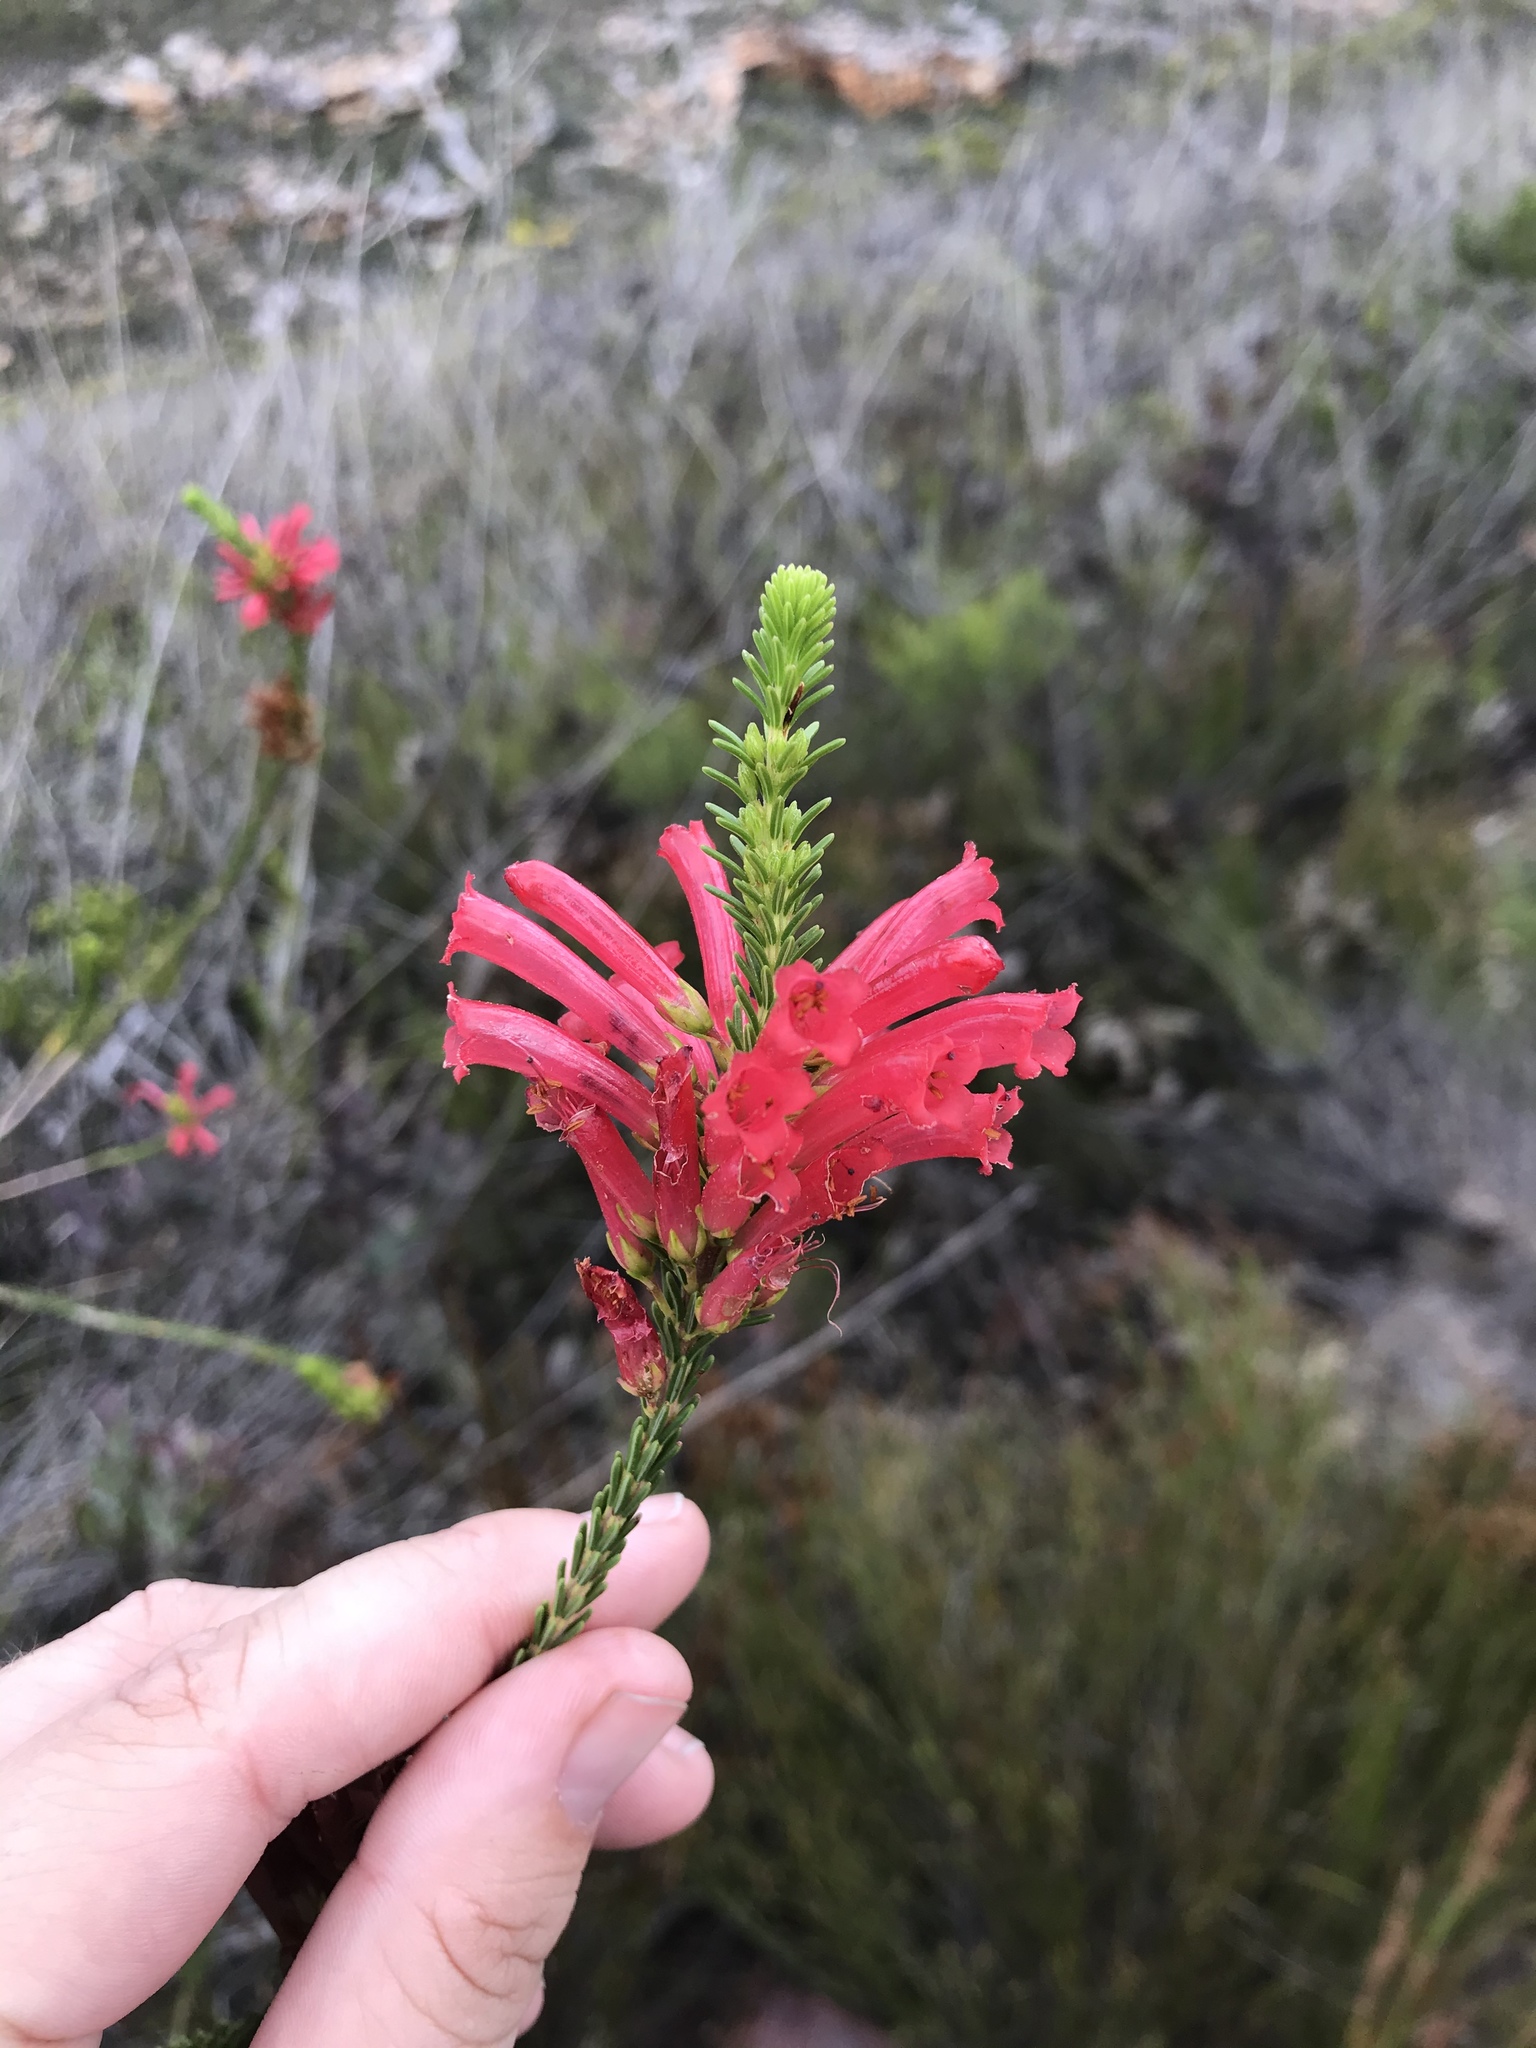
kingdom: Plantae
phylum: Tracheophyta
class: Magnoliopsida
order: Ericales
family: Ericaceae
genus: Erica
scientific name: Erica regia
